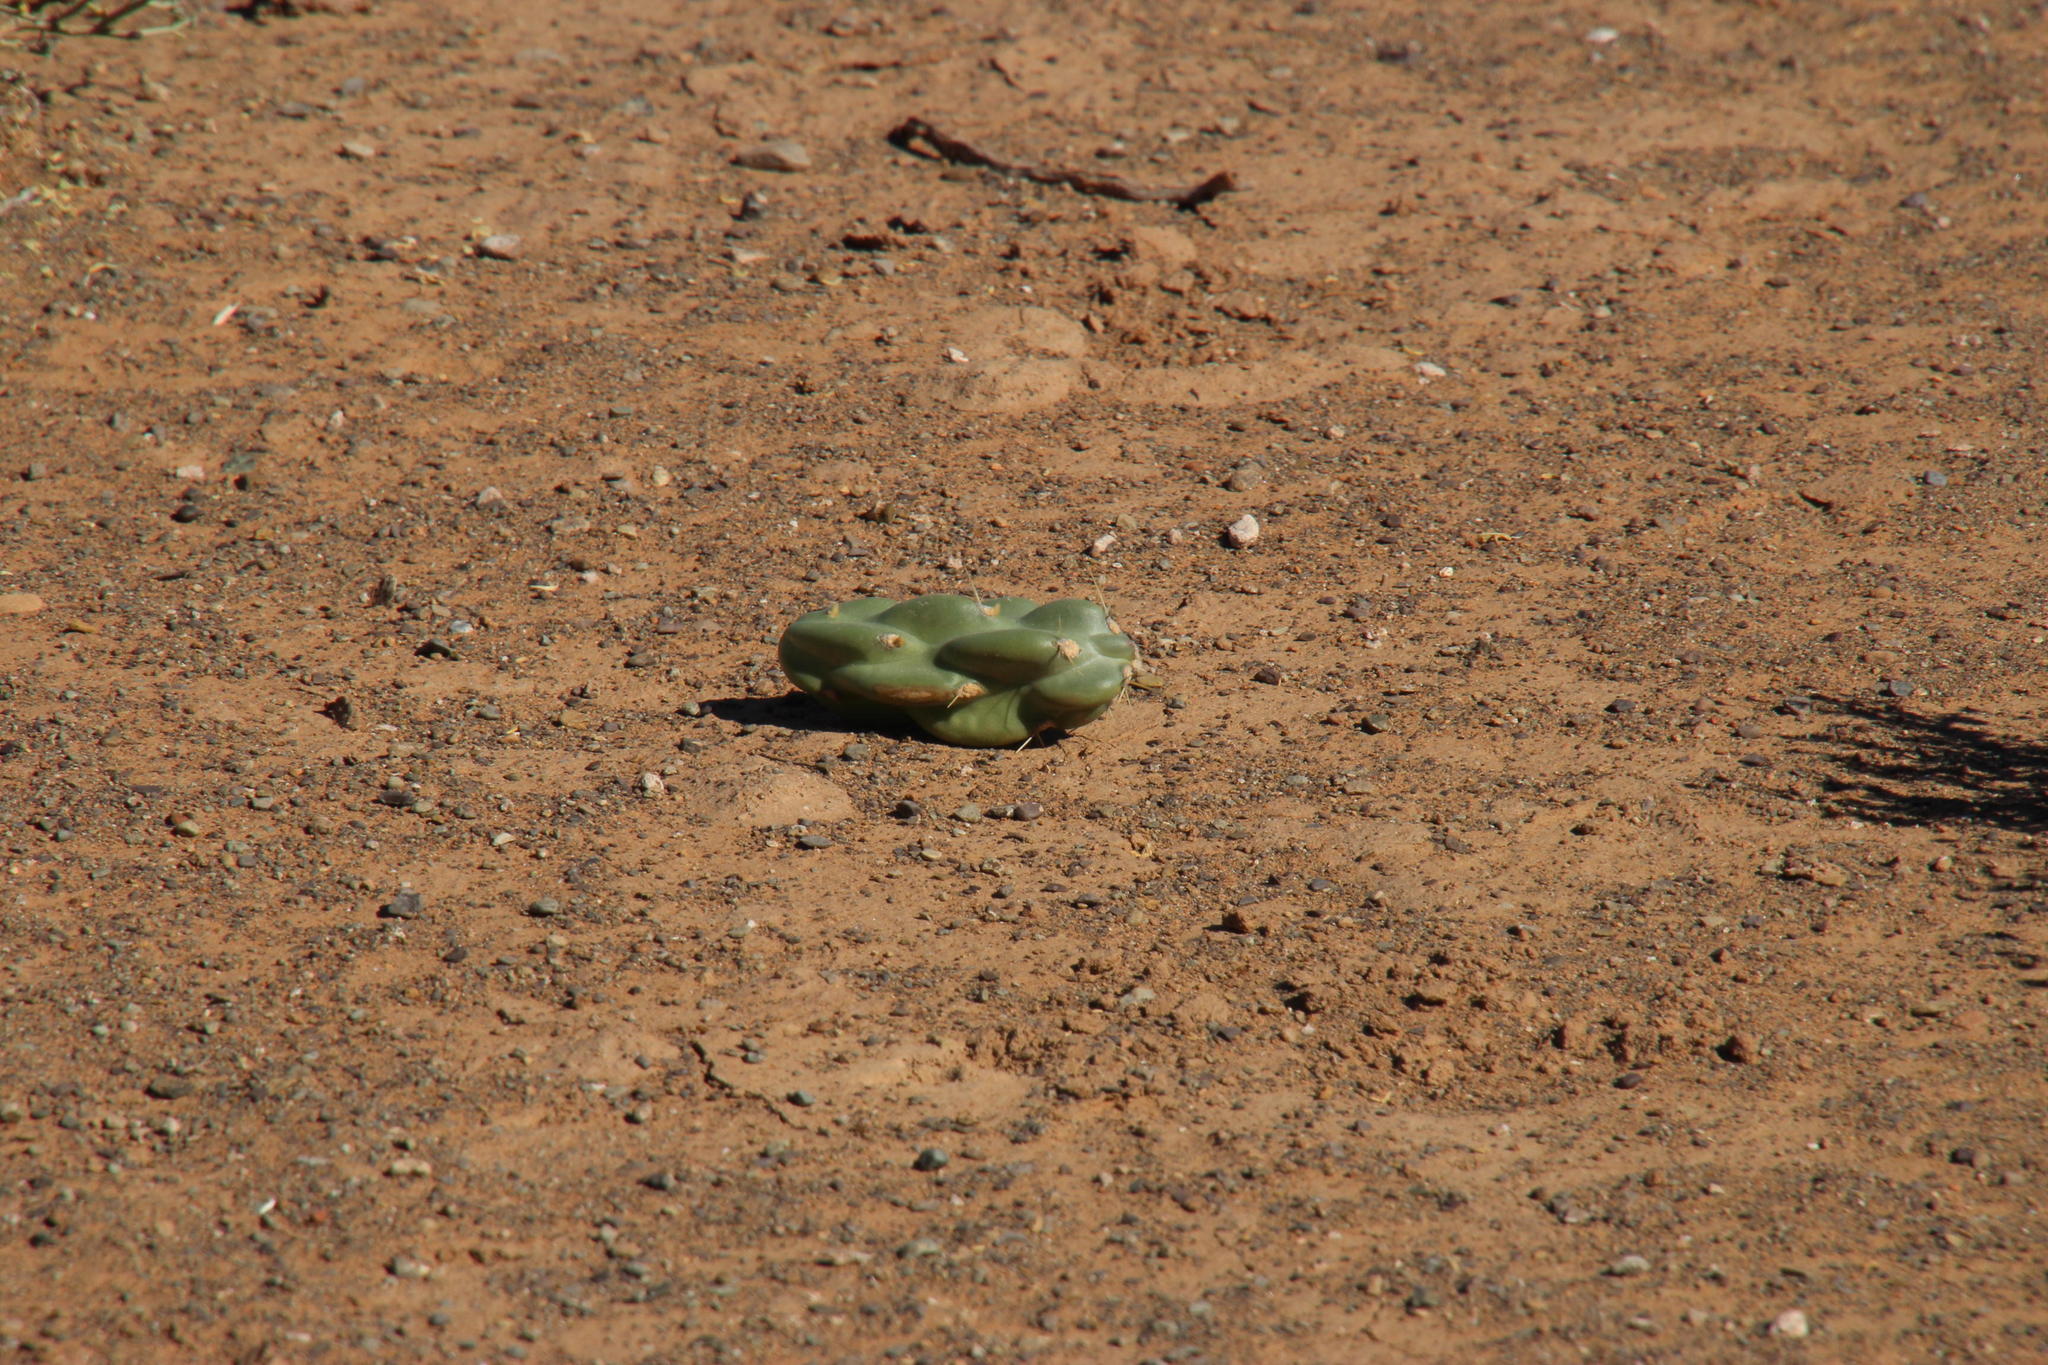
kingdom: Plantae
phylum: Tracheophyta
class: Magnoliopsida
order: Caryophyllales
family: Cactaceae
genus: Cylindropuntia
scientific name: Cylindropuntia imbricata
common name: Candelabrum cactus
